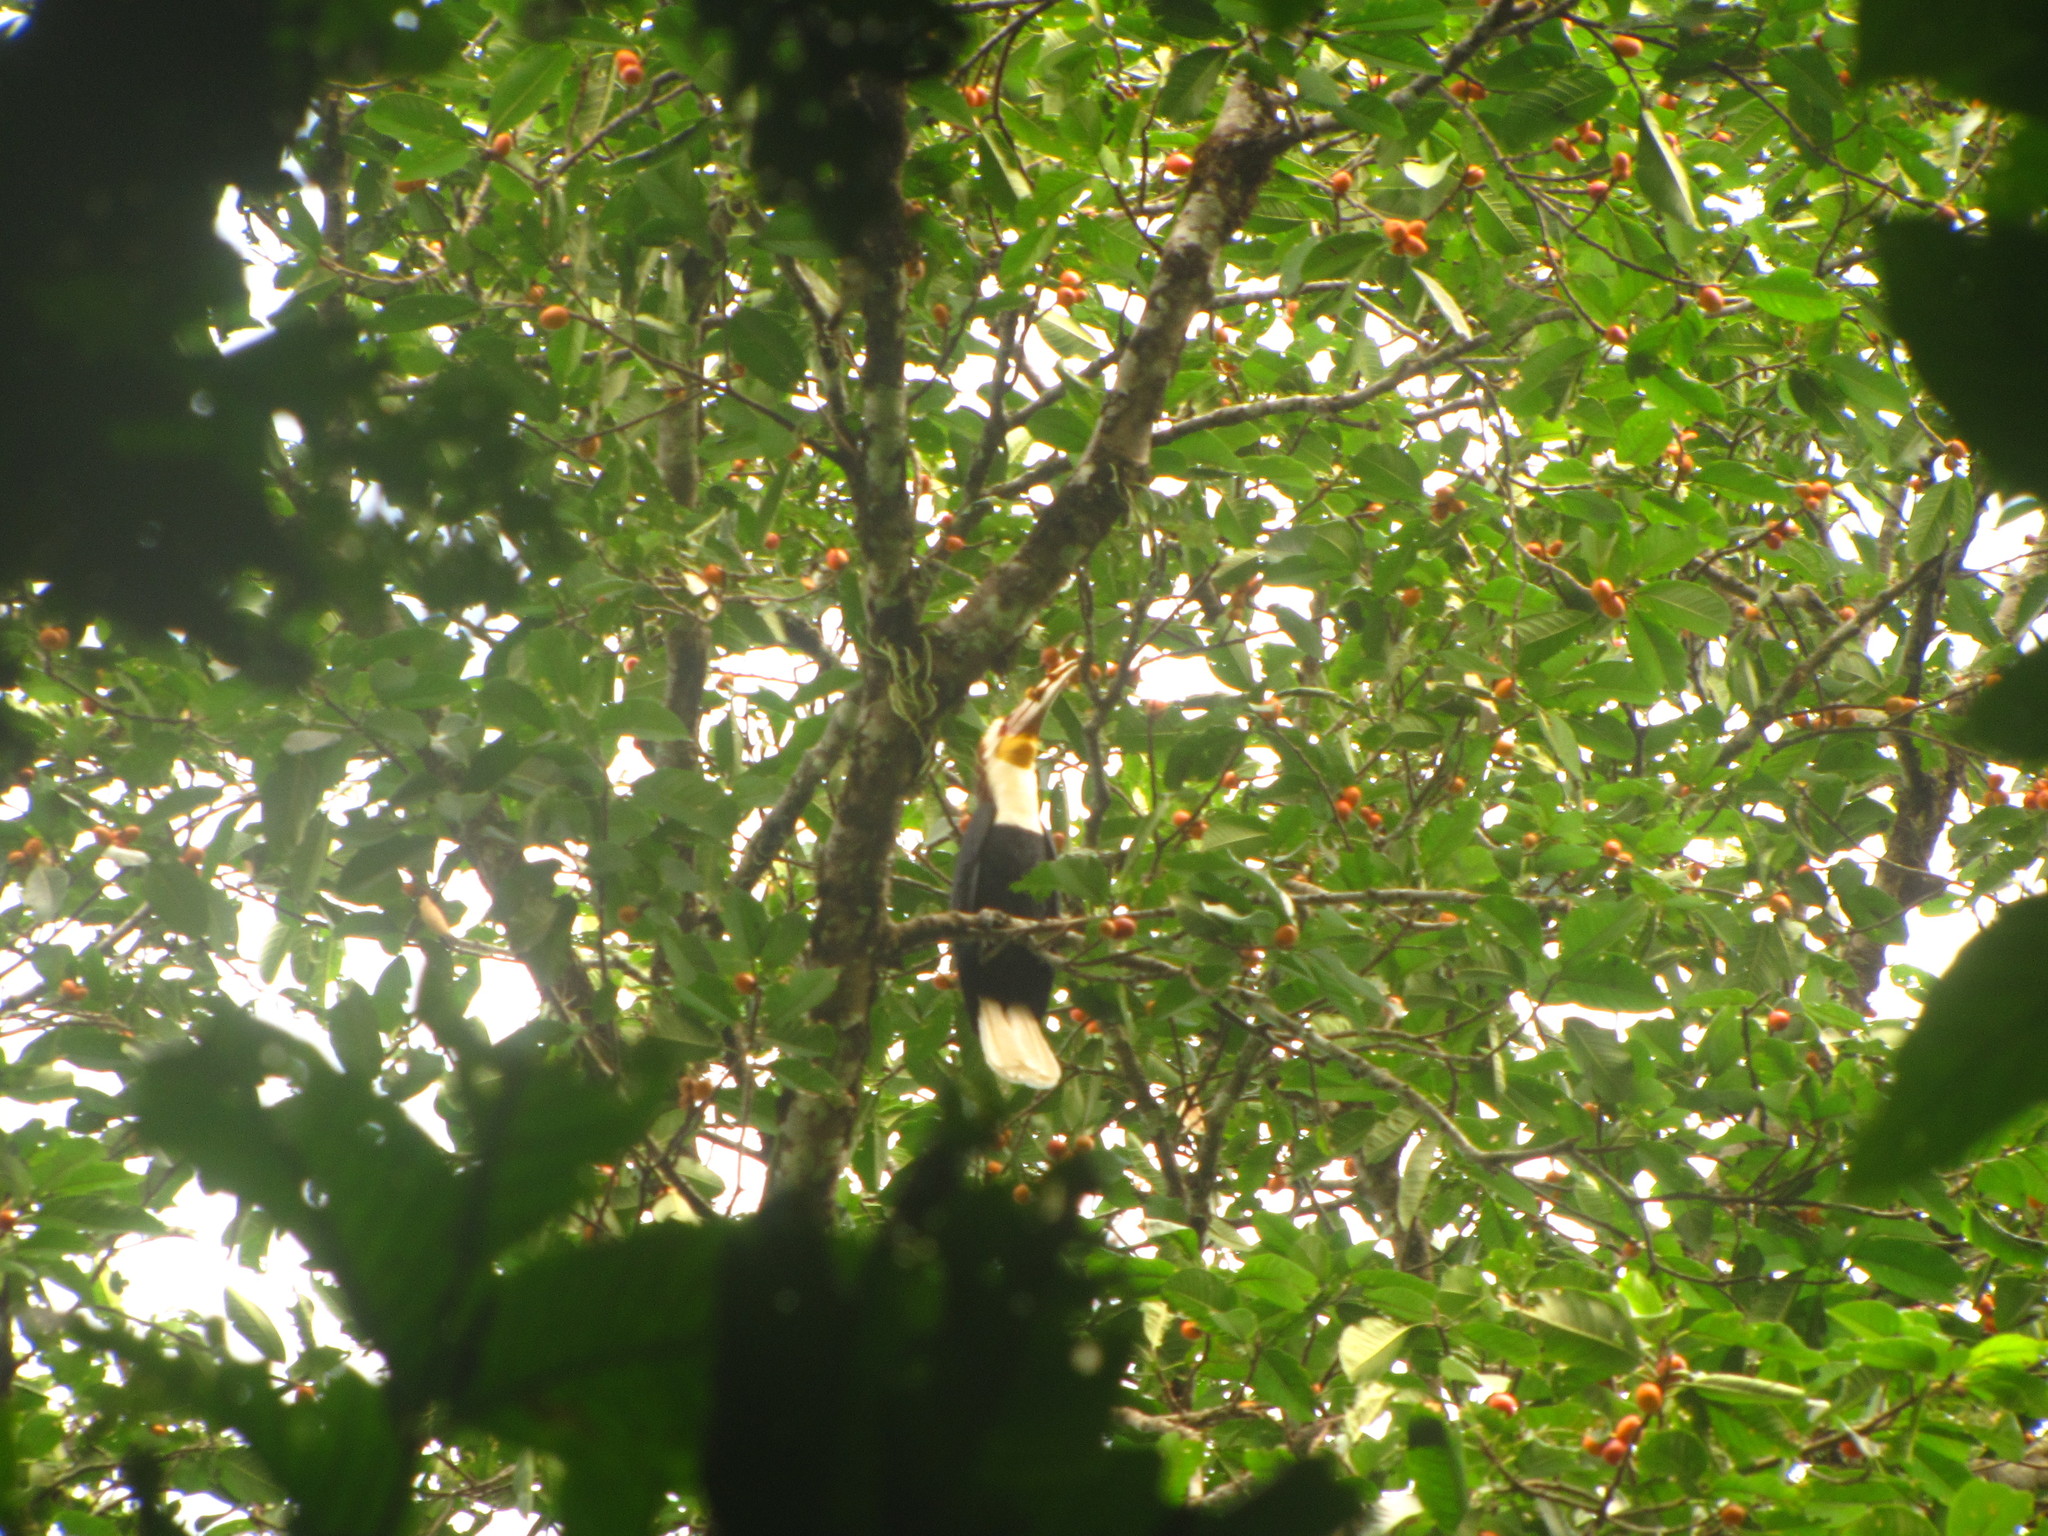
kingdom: Animalia
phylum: Chordata
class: Aves
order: Bucerotiformes
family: Bucerotidae
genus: Rhyticeros
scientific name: Rhyticeros undulatus
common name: Wreathed hornbill
